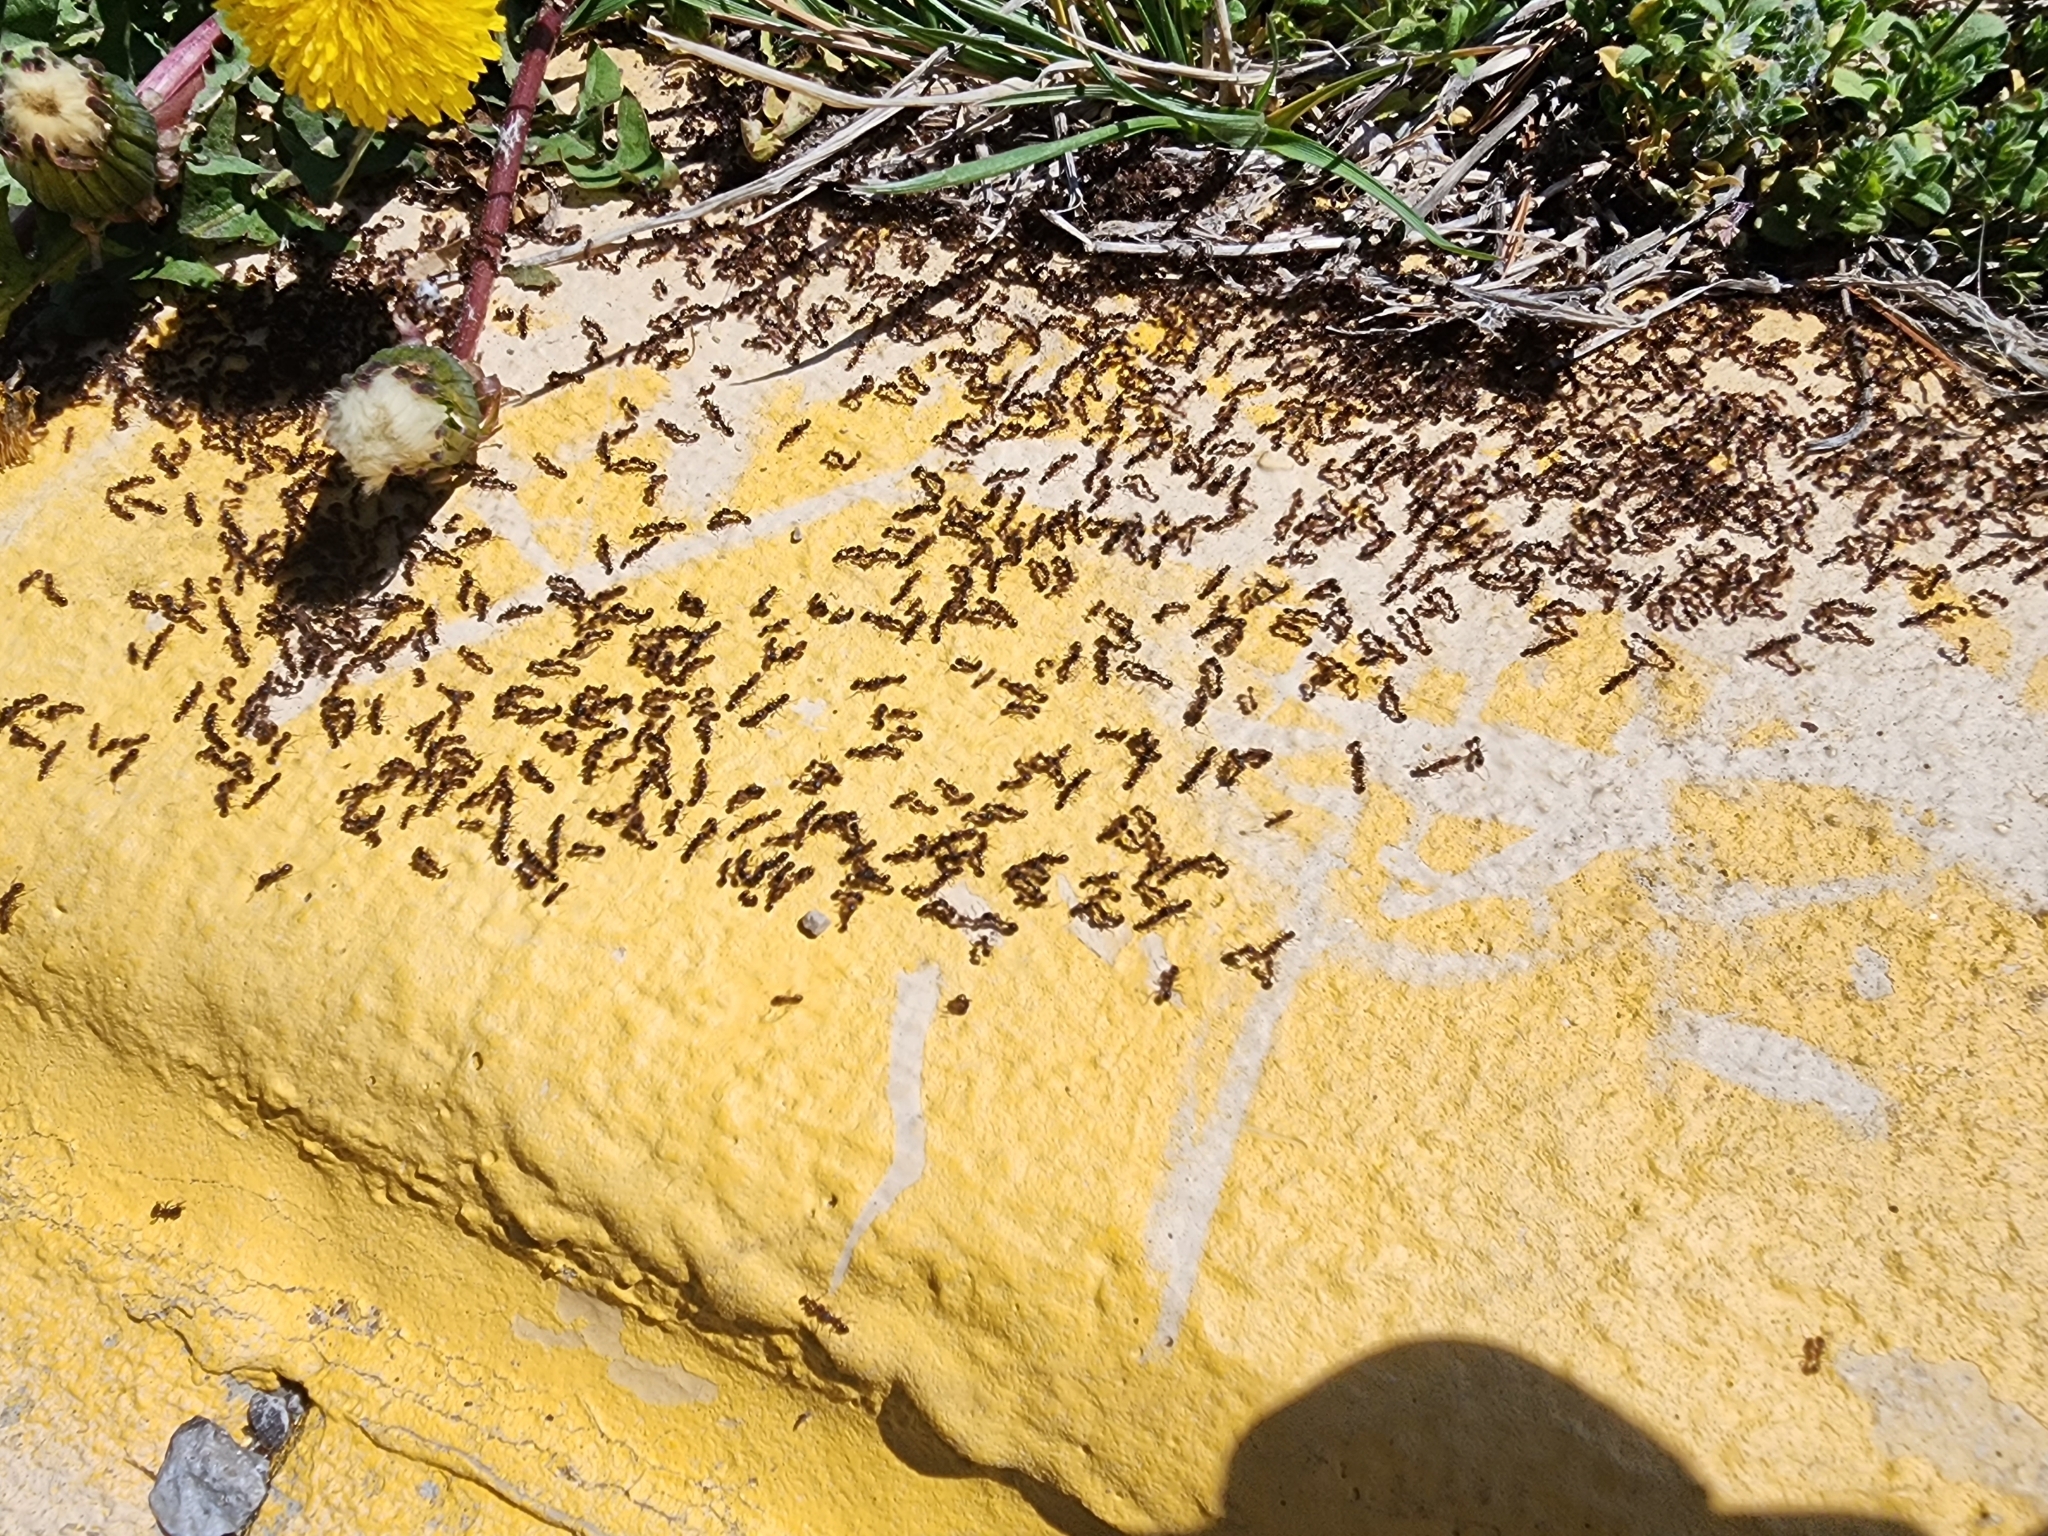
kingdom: Animalia
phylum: Arthropoda
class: Insecta
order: Hymenoptera
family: Formicidae
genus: Tetramorium
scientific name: Tetramorium immigrans
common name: Pavement ant
